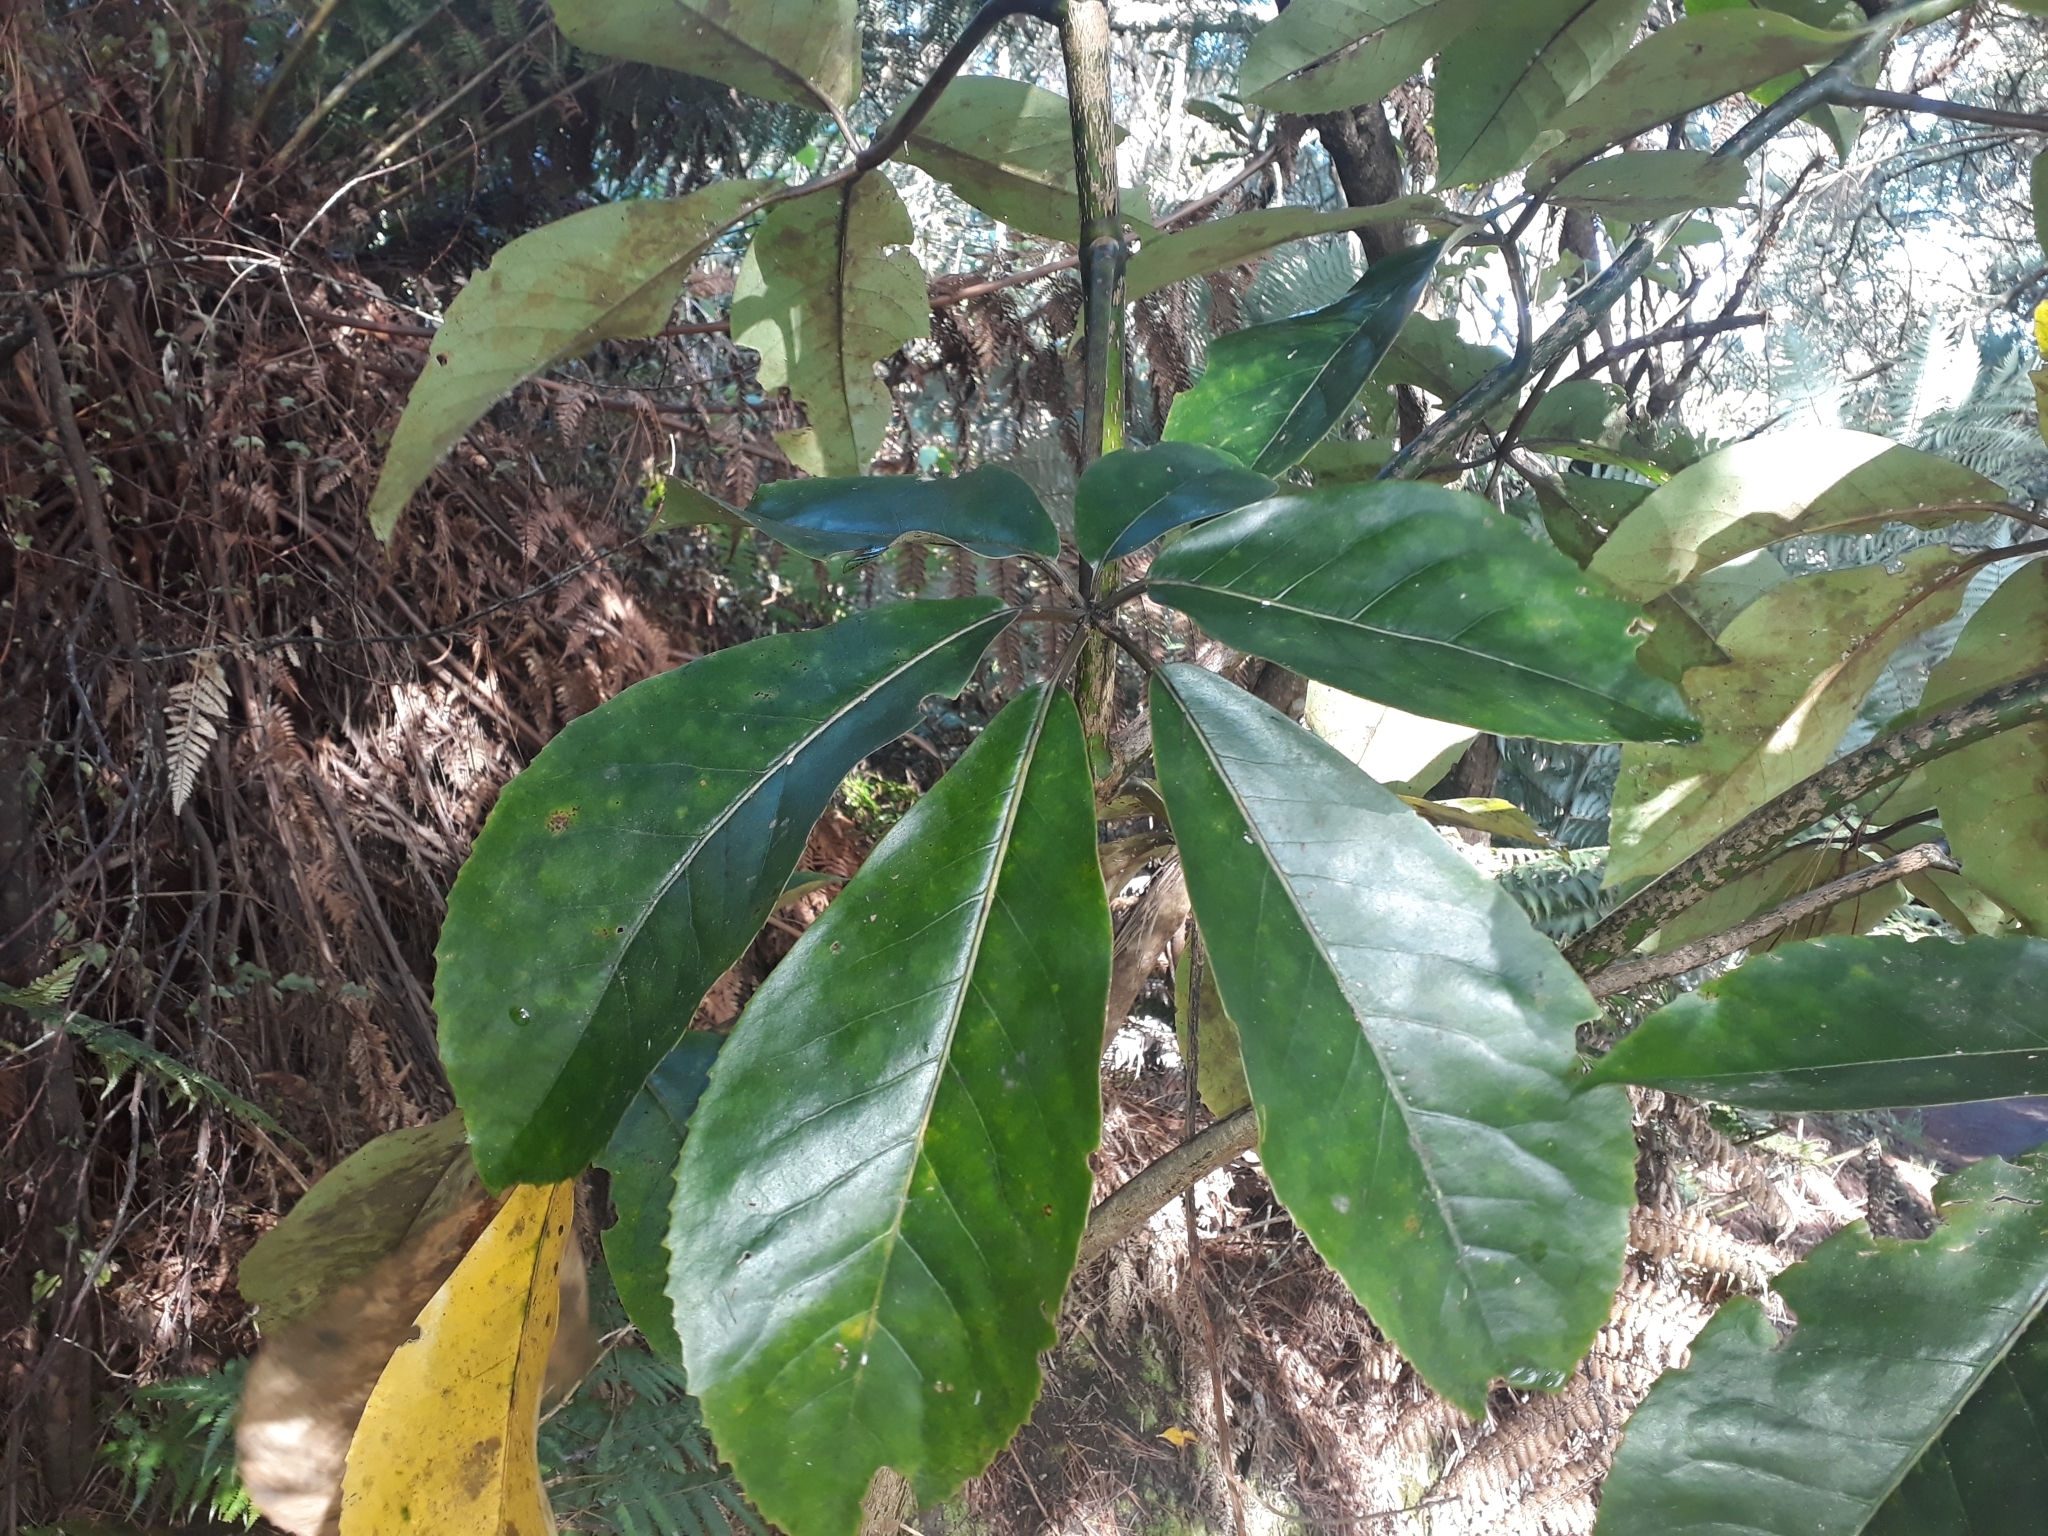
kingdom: Plantae
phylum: Tracheophyta
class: Magnoliopsida
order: Apiales
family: Araliaceae
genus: Neopanax
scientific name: Neopanax laetus
